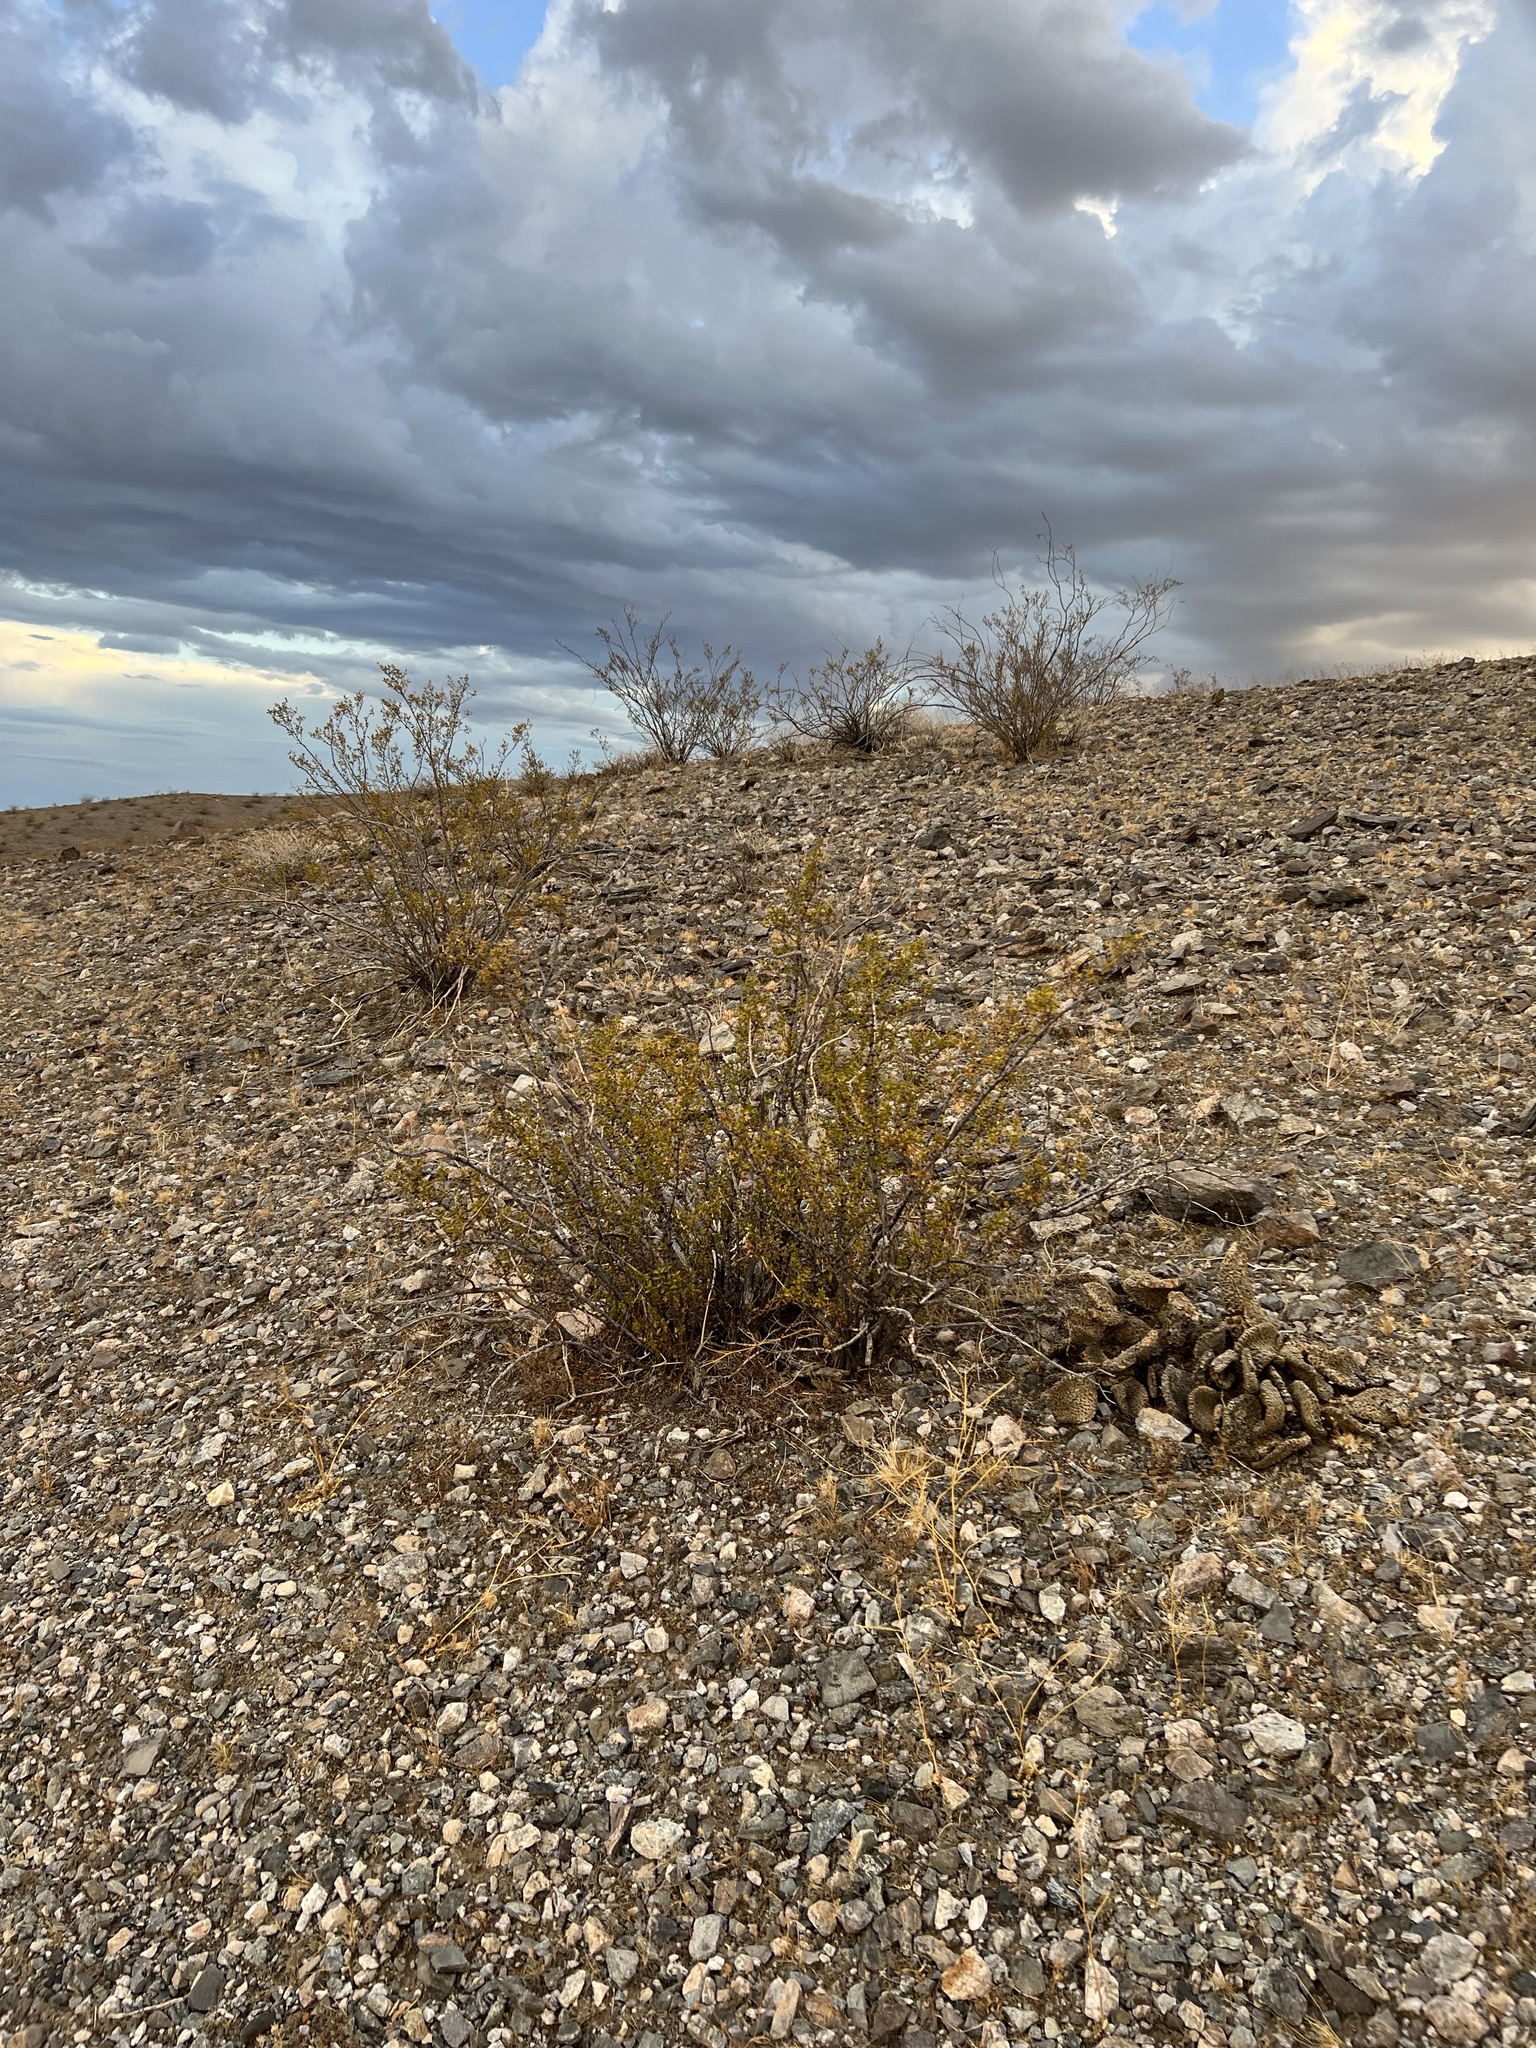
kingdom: Plantae
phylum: Tracheophyta
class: Magnoliopsida
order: Zygophyllales
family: Zygophyllaceae
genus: Larrea
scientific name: Larrea tridentata
